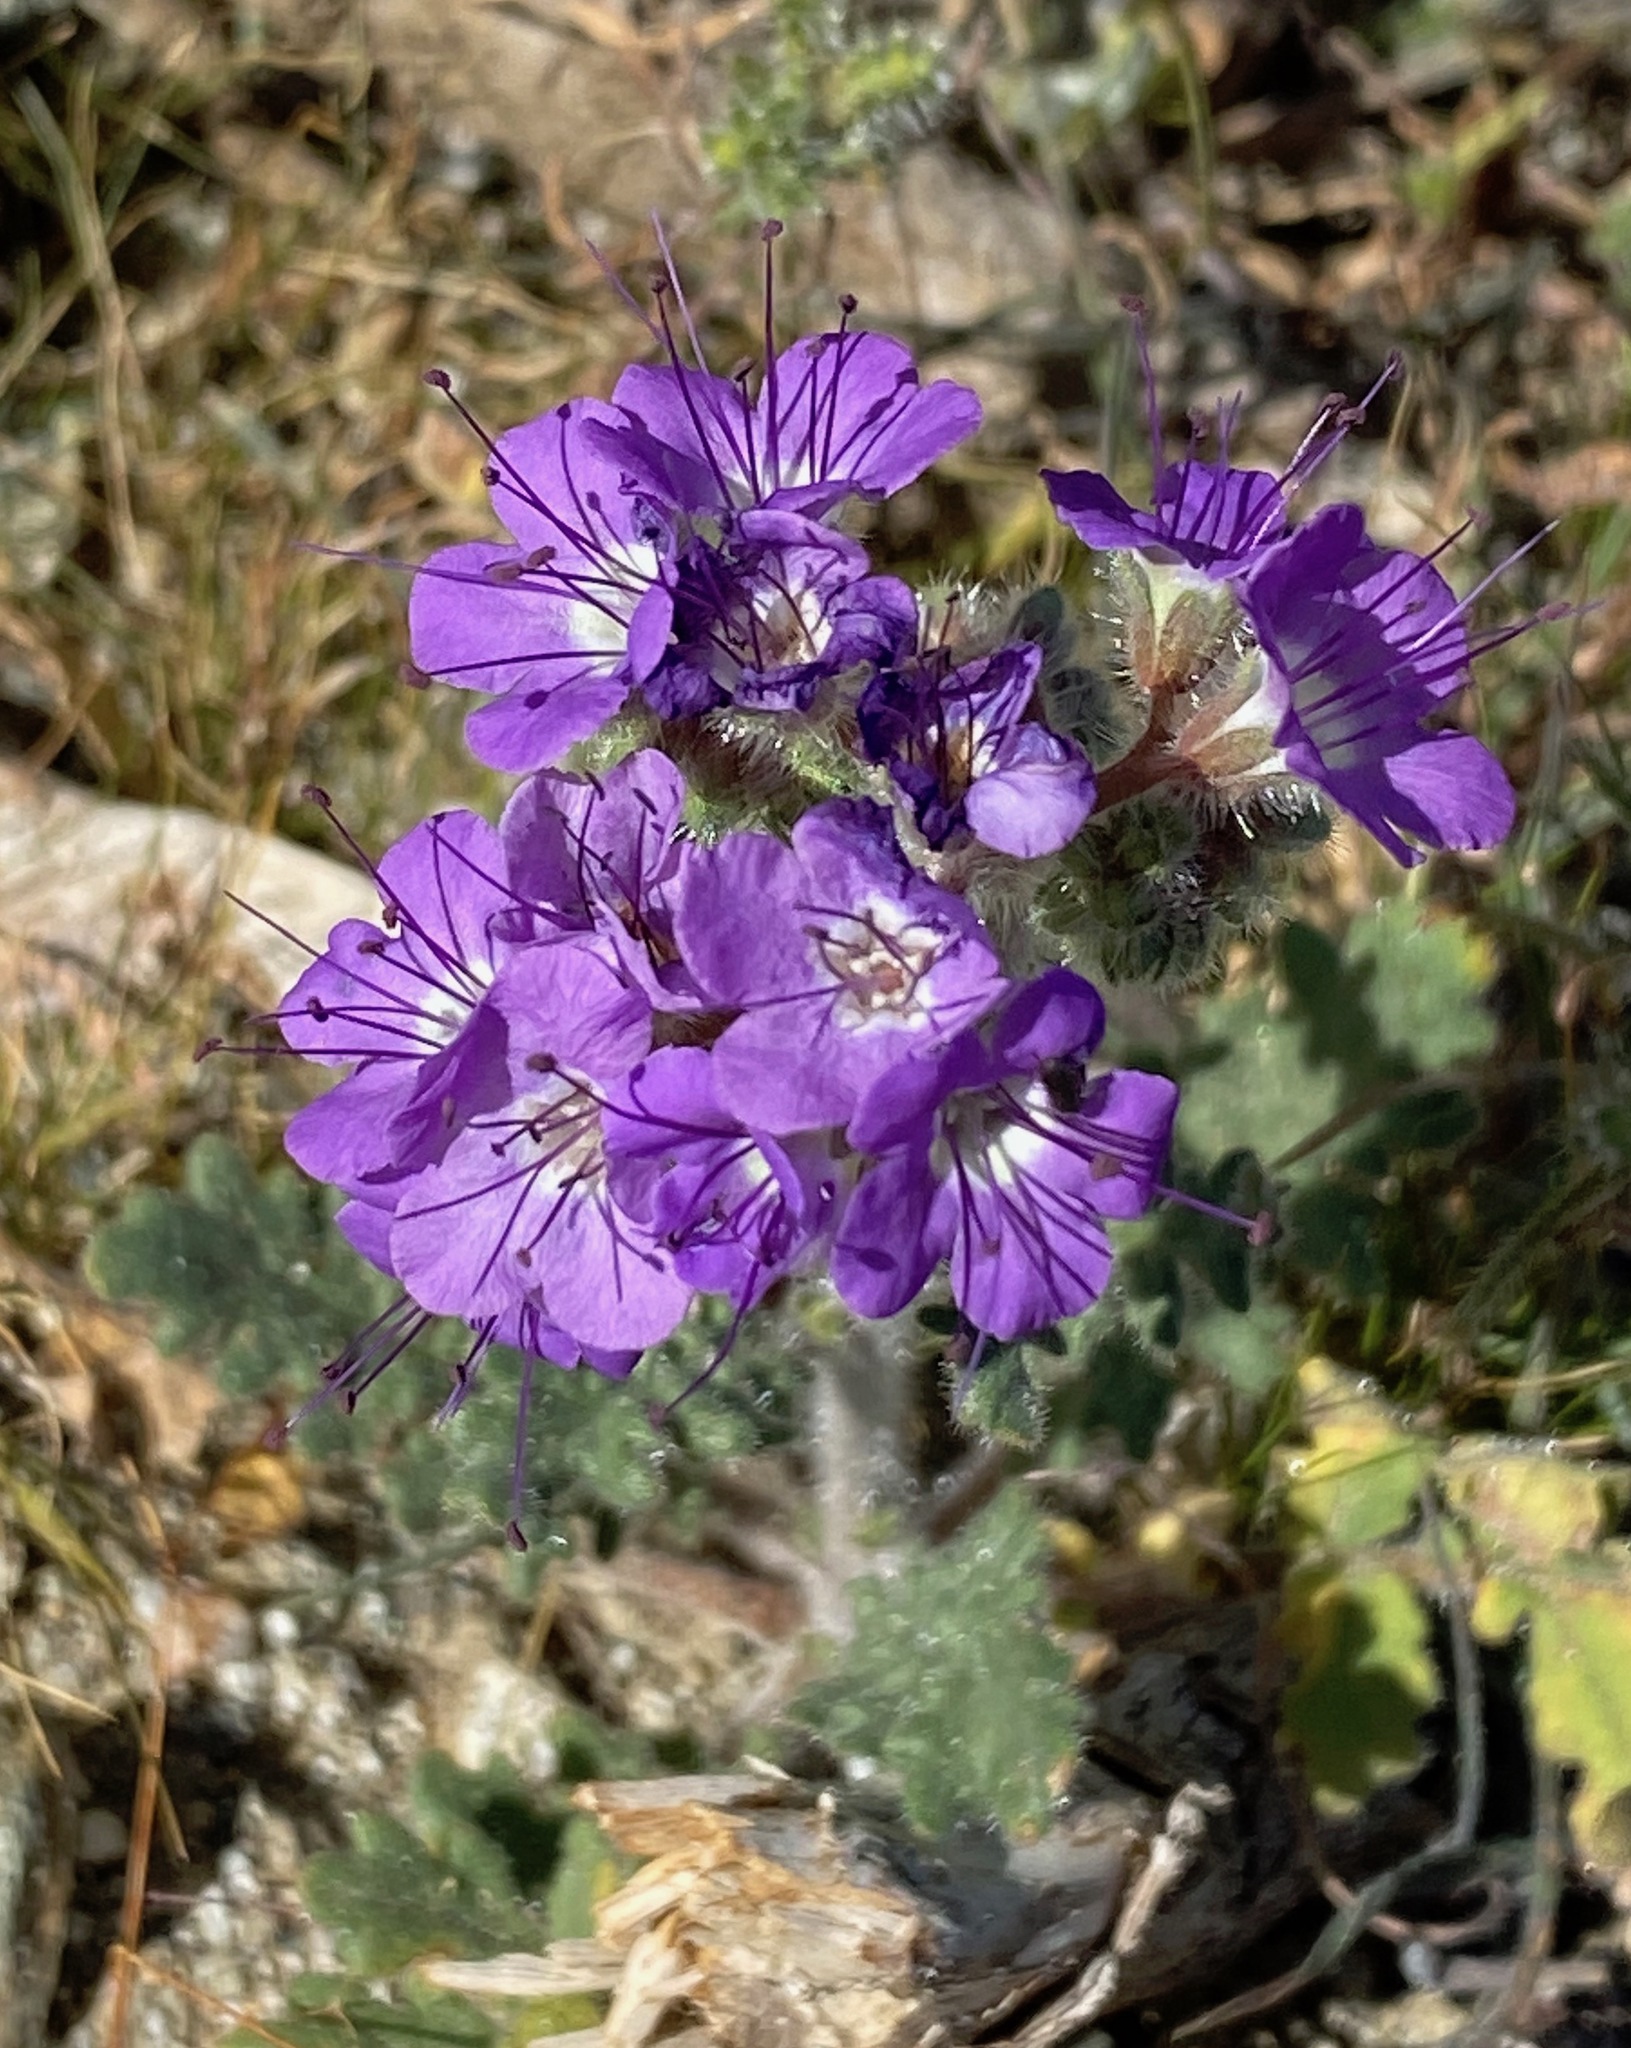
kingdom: Plantae
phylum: Tracheophyta
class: Magnoliopsida
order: Boraginales
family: Hydrophyllaceae
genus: Phacelia
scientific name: Phacelia crenulata
